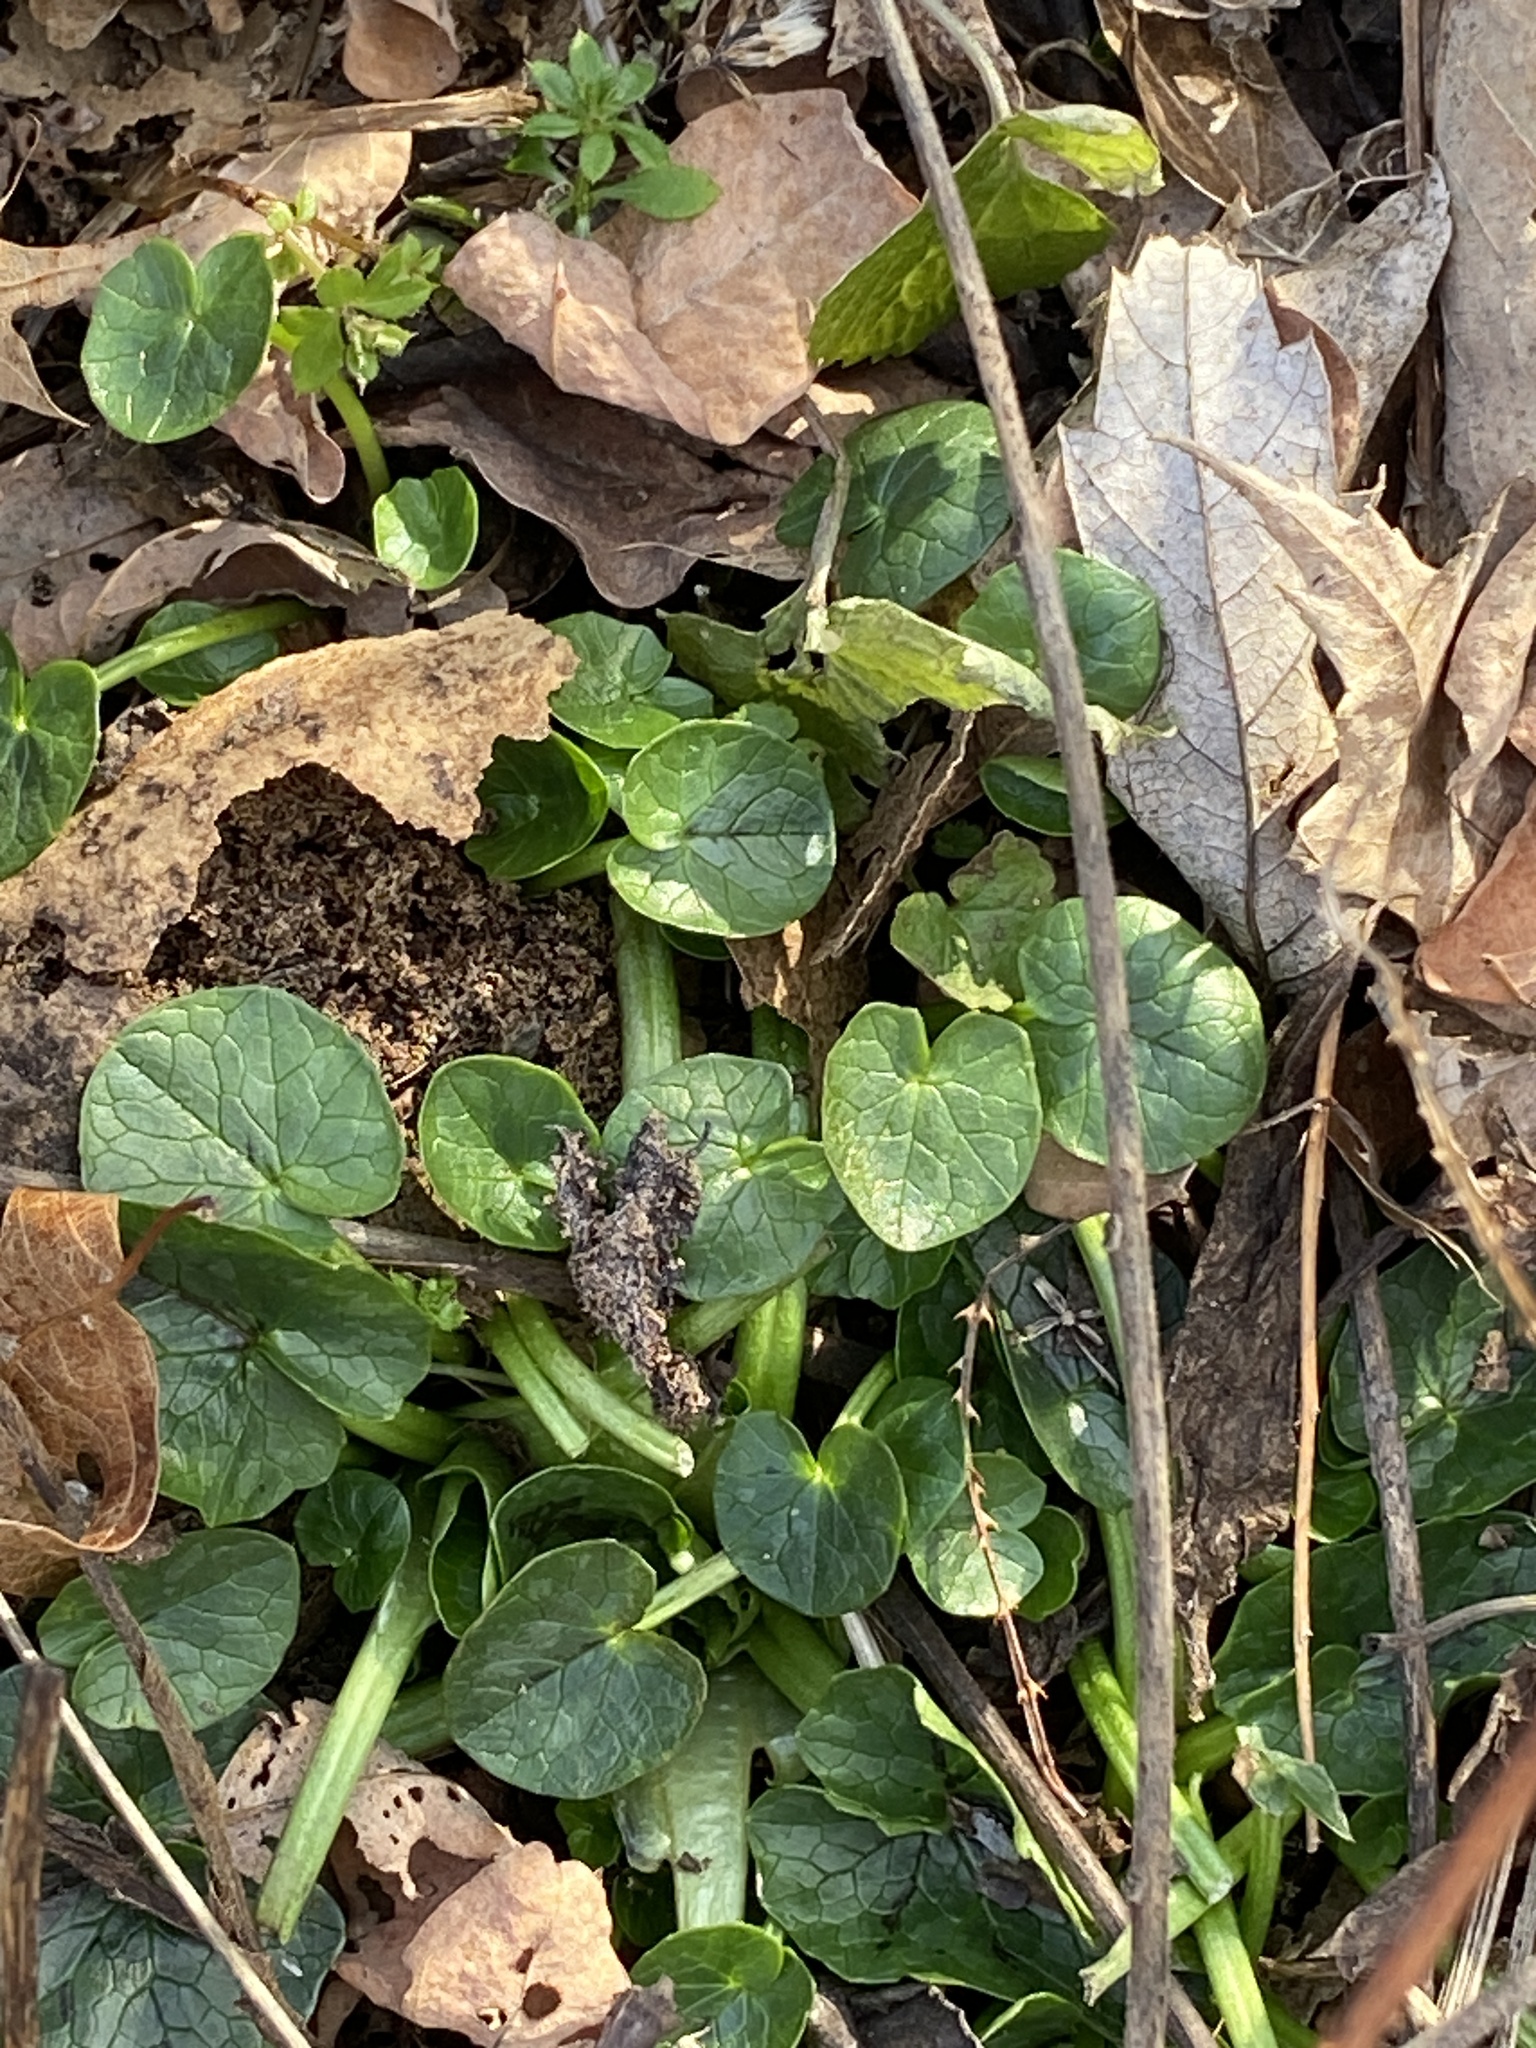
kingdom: Plantae
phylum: Tracheophyta
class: Magnoliopsida
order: Ranunculales
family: Ranunculaceae
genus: Ficaria
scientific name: Ficaria verna
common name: Lesser celandine
